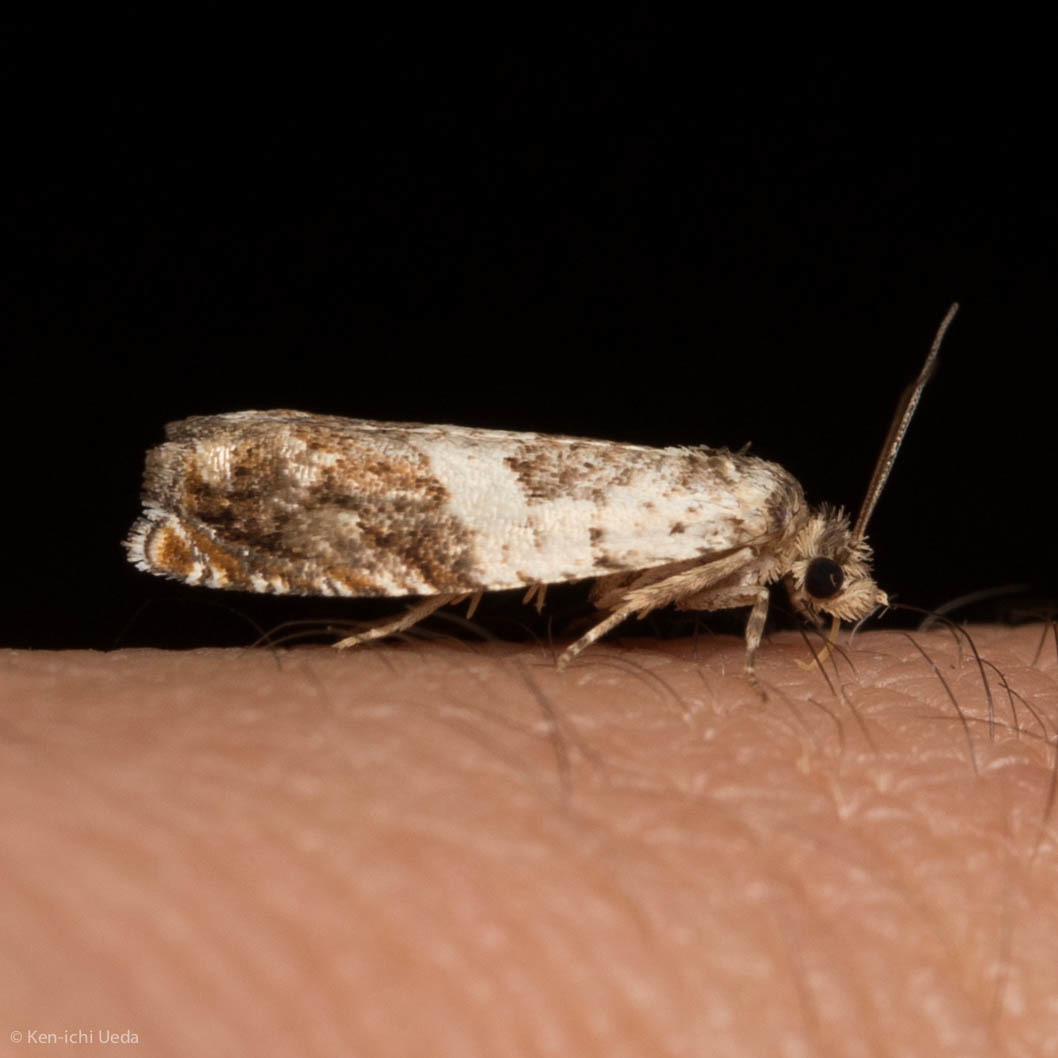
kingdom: Animalia
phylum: Arthropoda
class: Insecta
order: Lepidoptera
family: Tortricidae
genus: Epinotia
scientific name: Epinotia nigralbana
